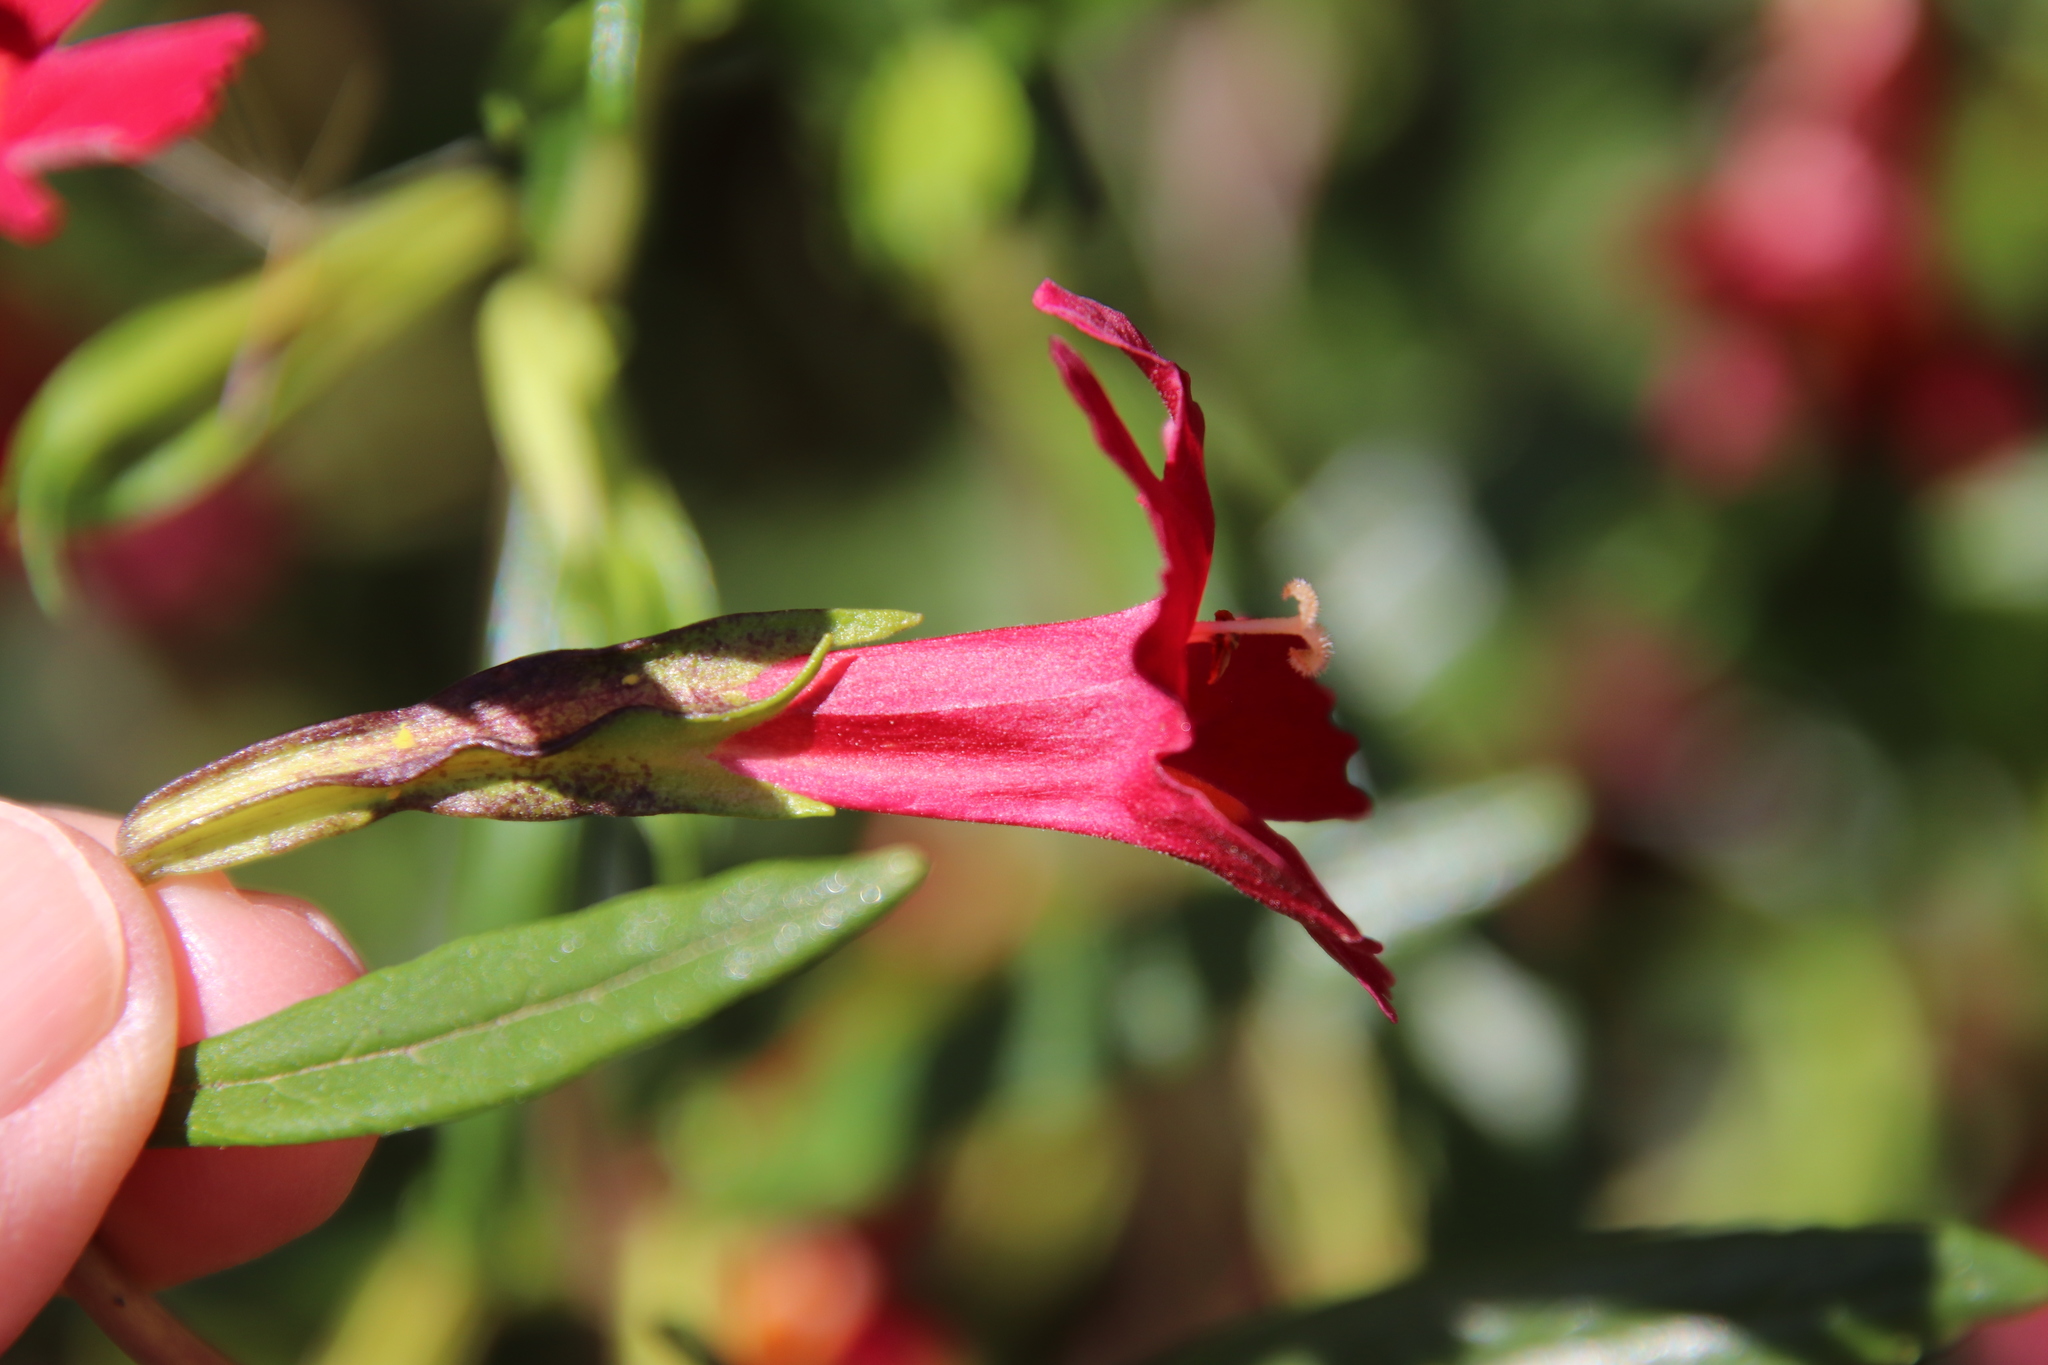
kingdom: Plantae
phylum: Tracheophyta
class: Magnoliopsida
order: Lamiales
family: Phrymaceae
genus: Diplacus
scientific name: Diplacus puniceus
